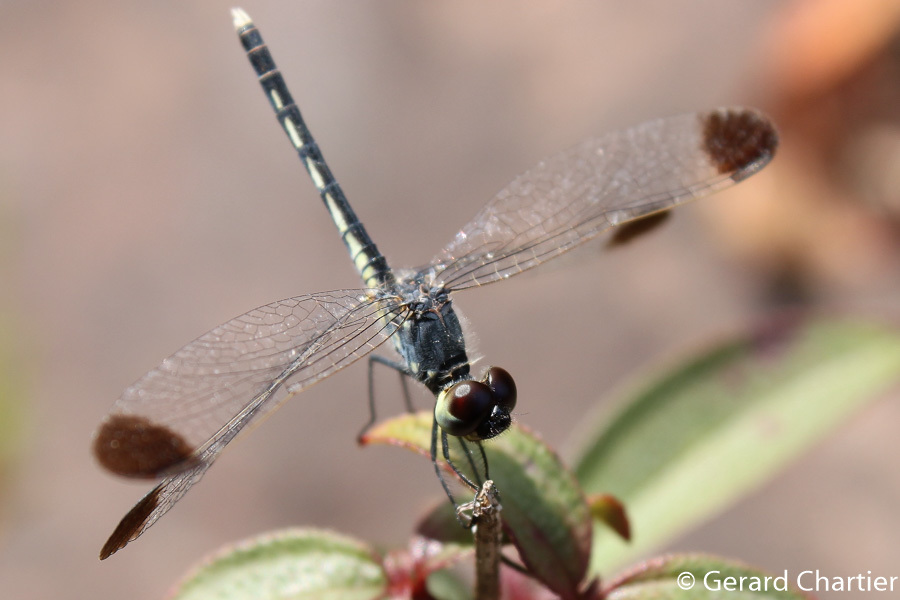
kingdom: Animalia
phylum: Arthropoda
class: Insecta
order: Odonata
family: Libellulidae
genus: Diplacodes
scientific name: Diplacodes nebulosa
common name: Black-tipped percher
